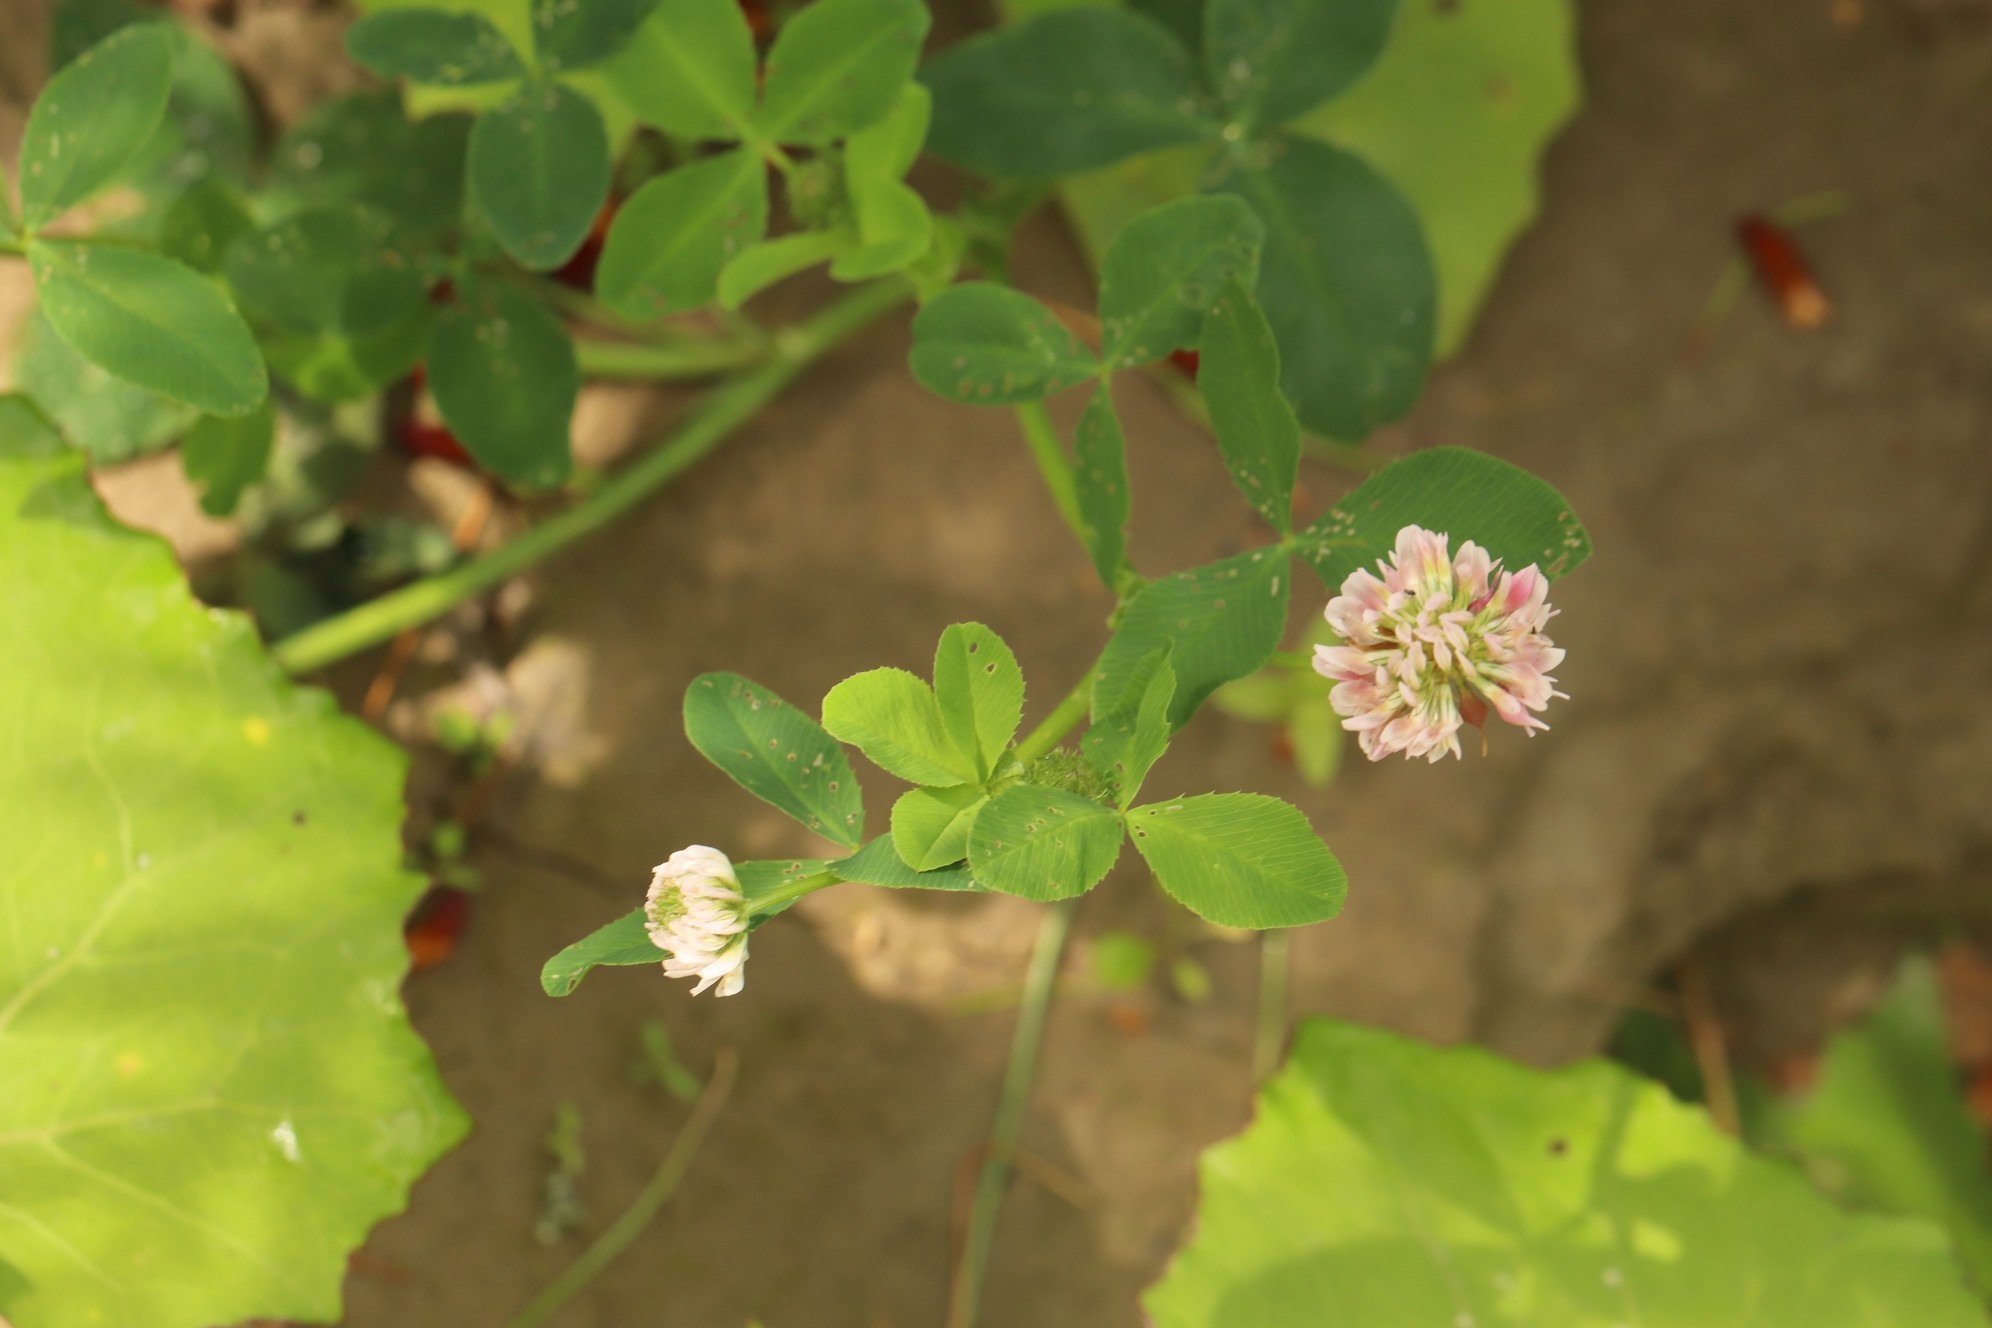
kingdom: Plantae
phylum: Tracheophyta
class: Magnoliopsida
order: Fabales
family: Fabaceae
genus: Trifolium
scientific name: Trifolium hybridum
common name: Alsike clover
